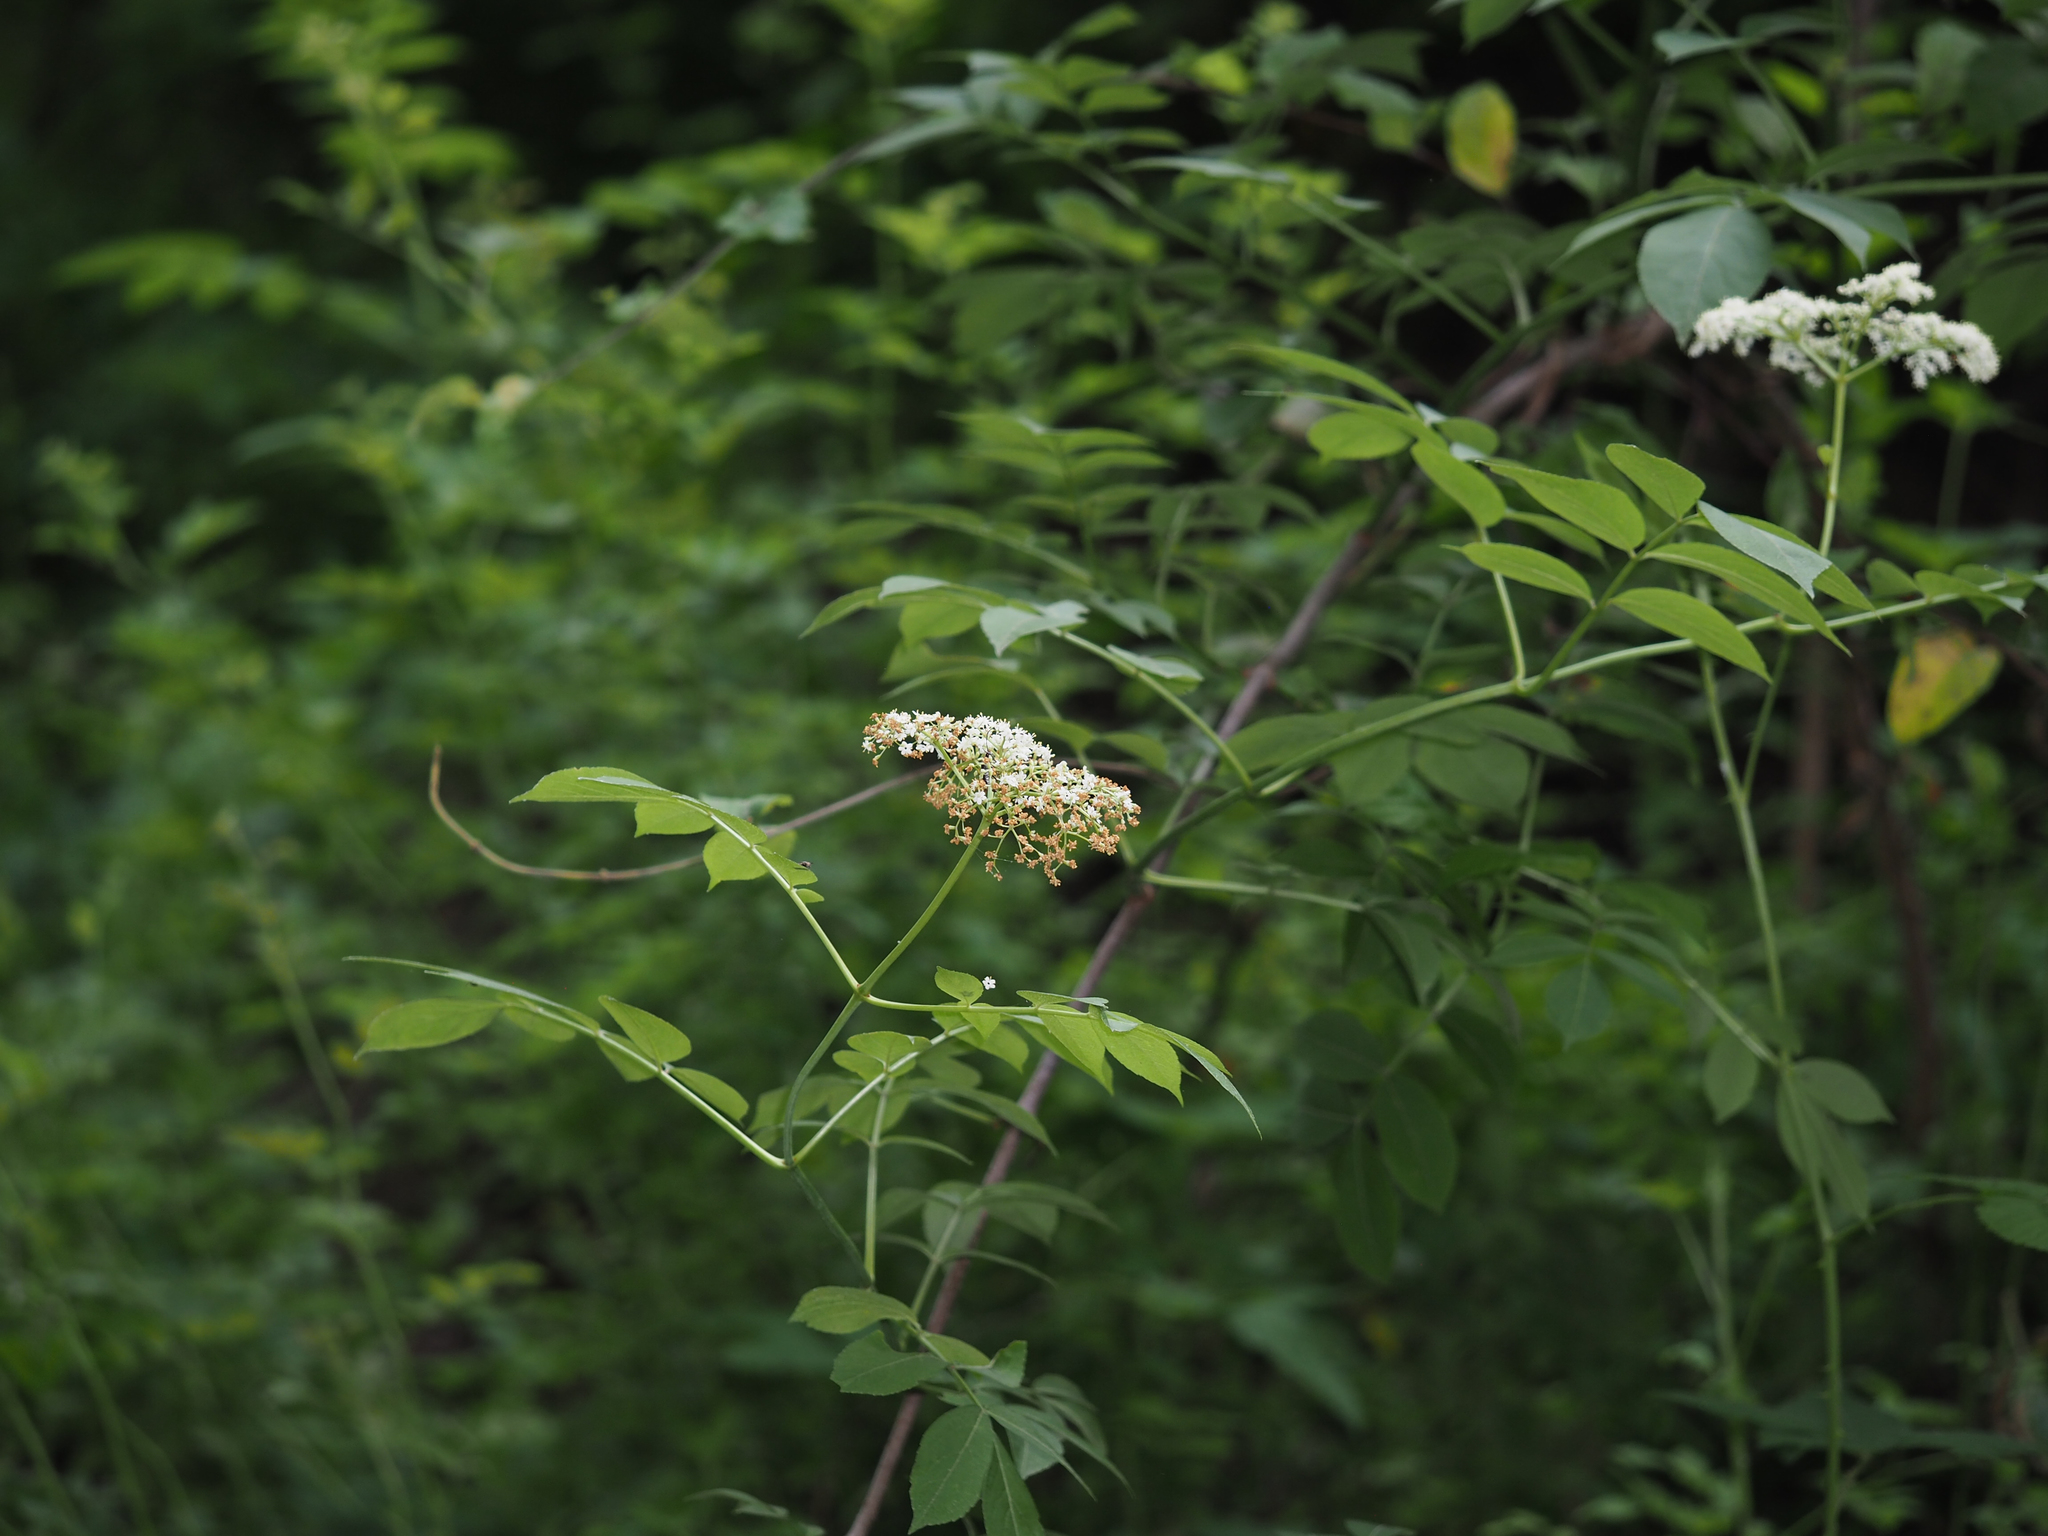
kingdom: Plantae
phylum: Tracheophyta
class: Magnoliopsida
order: Dipsacales
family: Viburnaceae
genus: Sambucus
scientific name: Sambucus canadensis
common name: American elder
